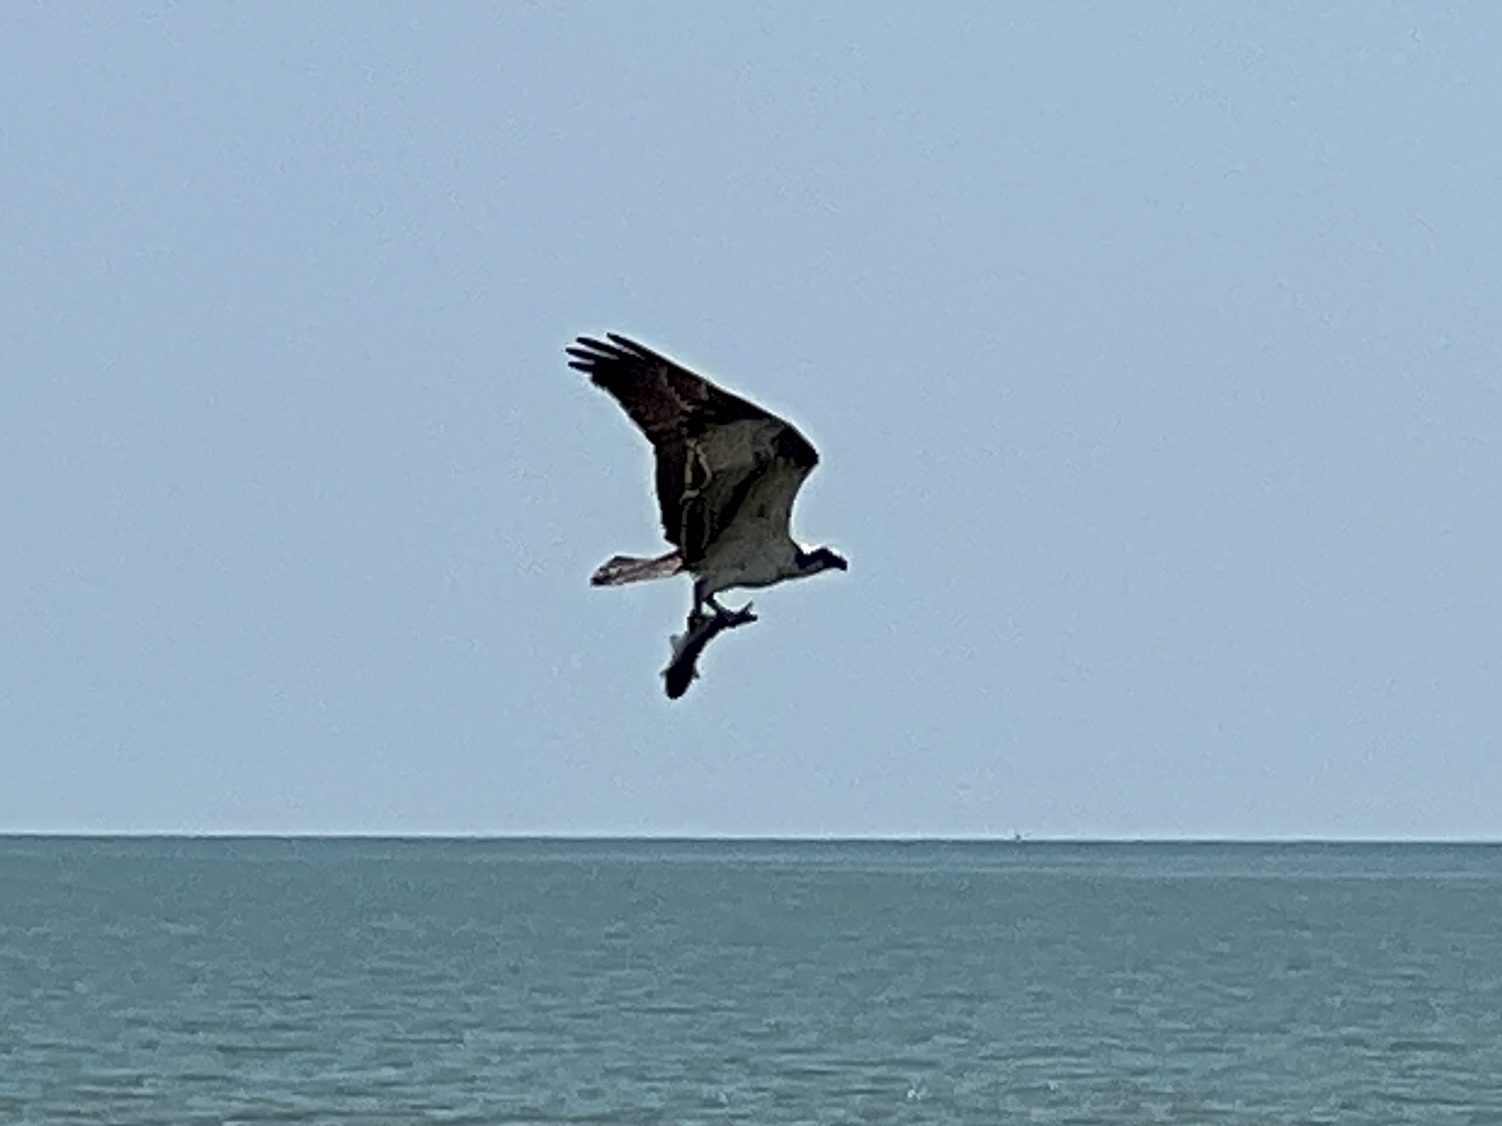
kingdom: Animalia
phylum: Chordata
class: Aves
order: Accipitriformes
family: Pandionidae
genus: Pandion
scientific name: Pandion haliaetus
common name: Osprey
